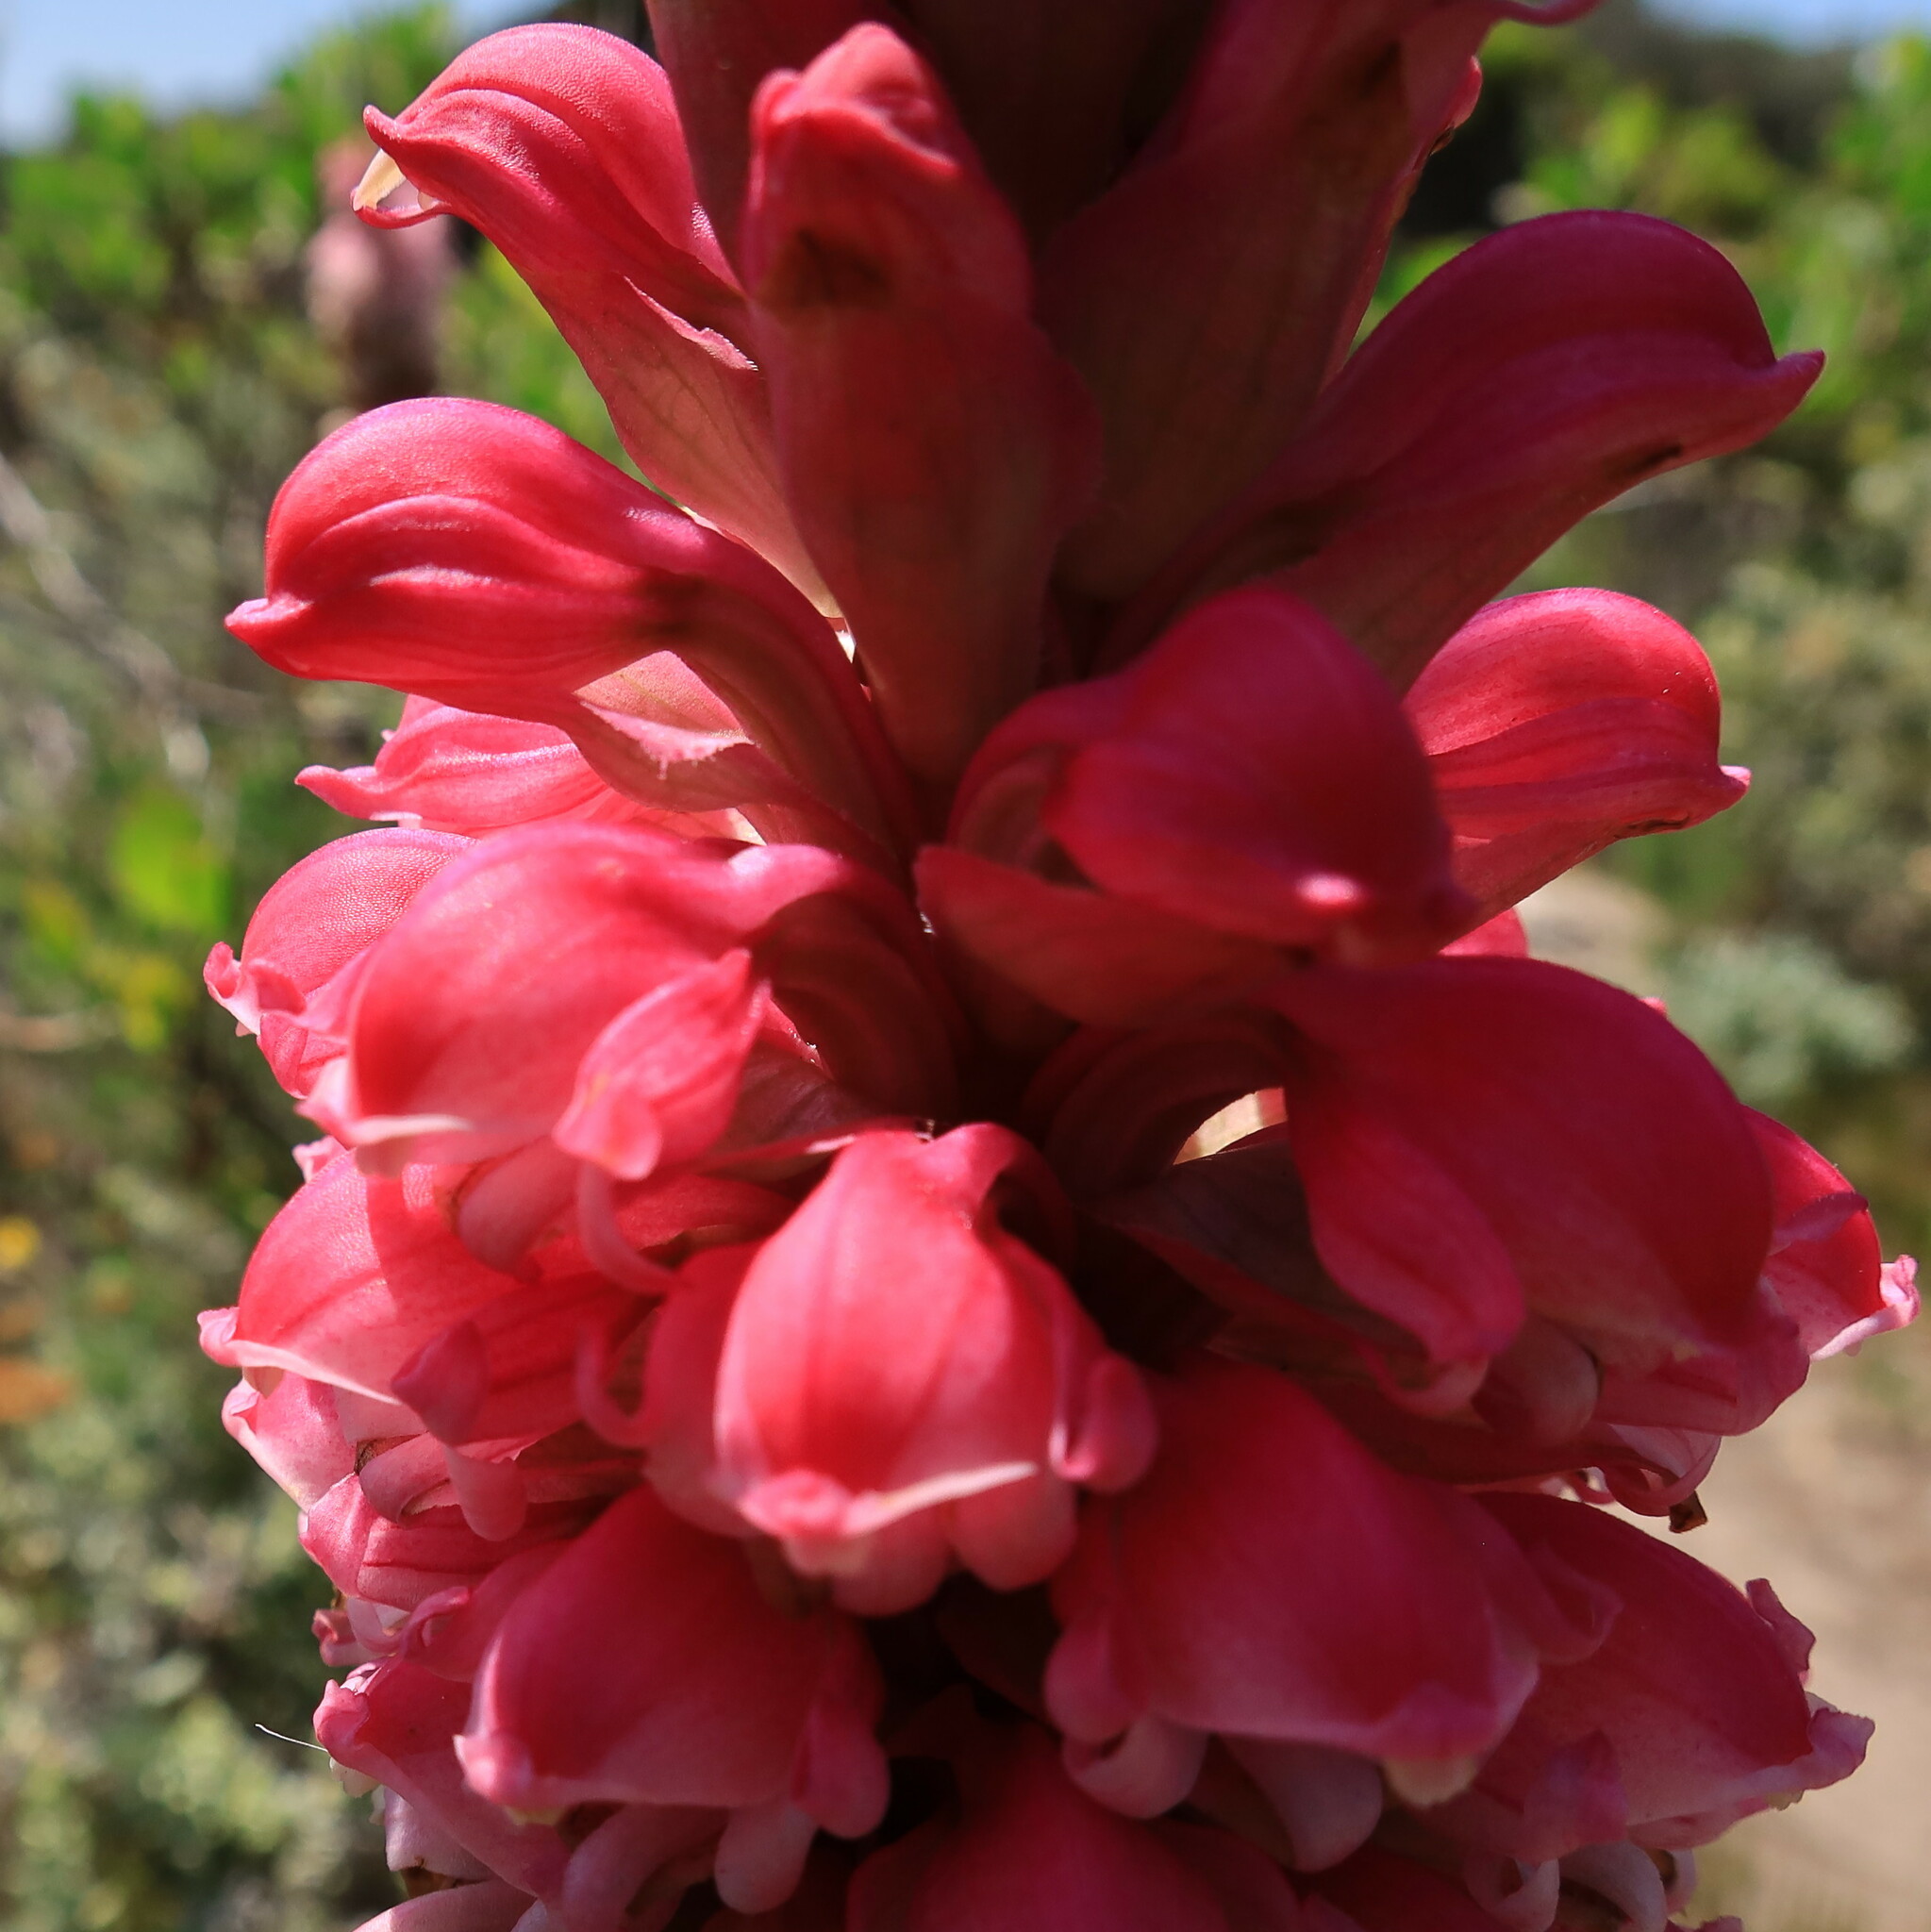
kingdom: Plantae
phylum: Tracheophyta
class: Liliopsida
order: Asparagales
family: Orchidaceae
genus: Satyrium
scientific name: Satyrium carneum
